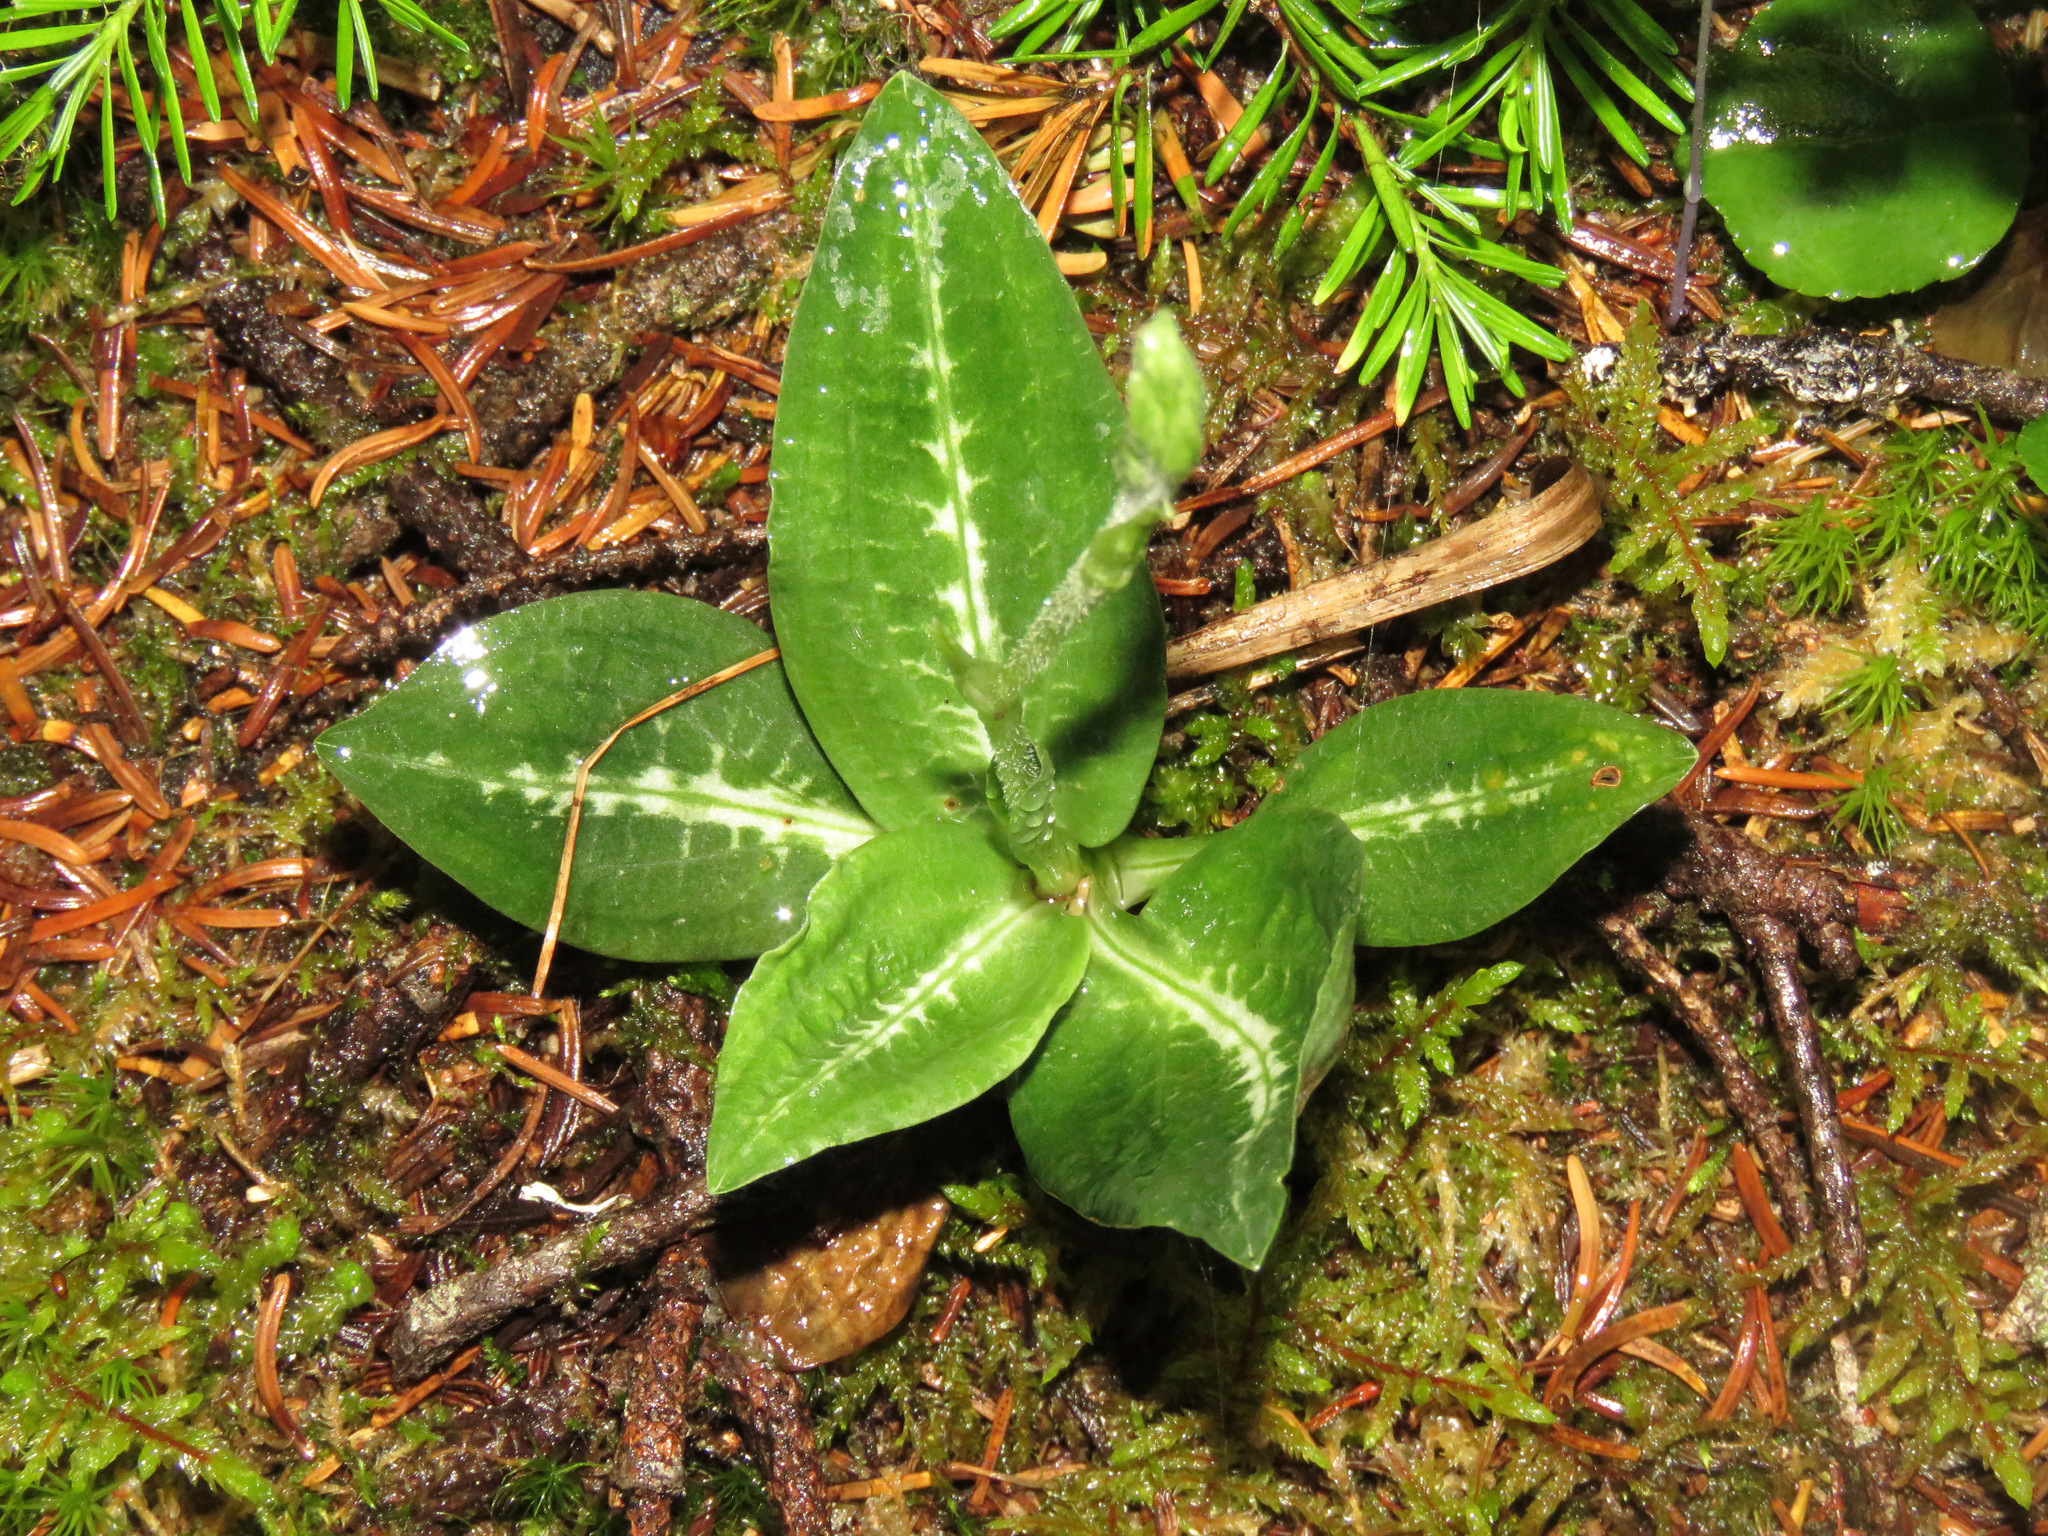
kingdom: Plantae
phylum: Tracheophyta
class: Liliopsida
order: Asparagales
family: Orchidaceae
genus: Goodyera
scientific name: Goodyera oblongifolia
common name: Giant rattlesnake-plantain
